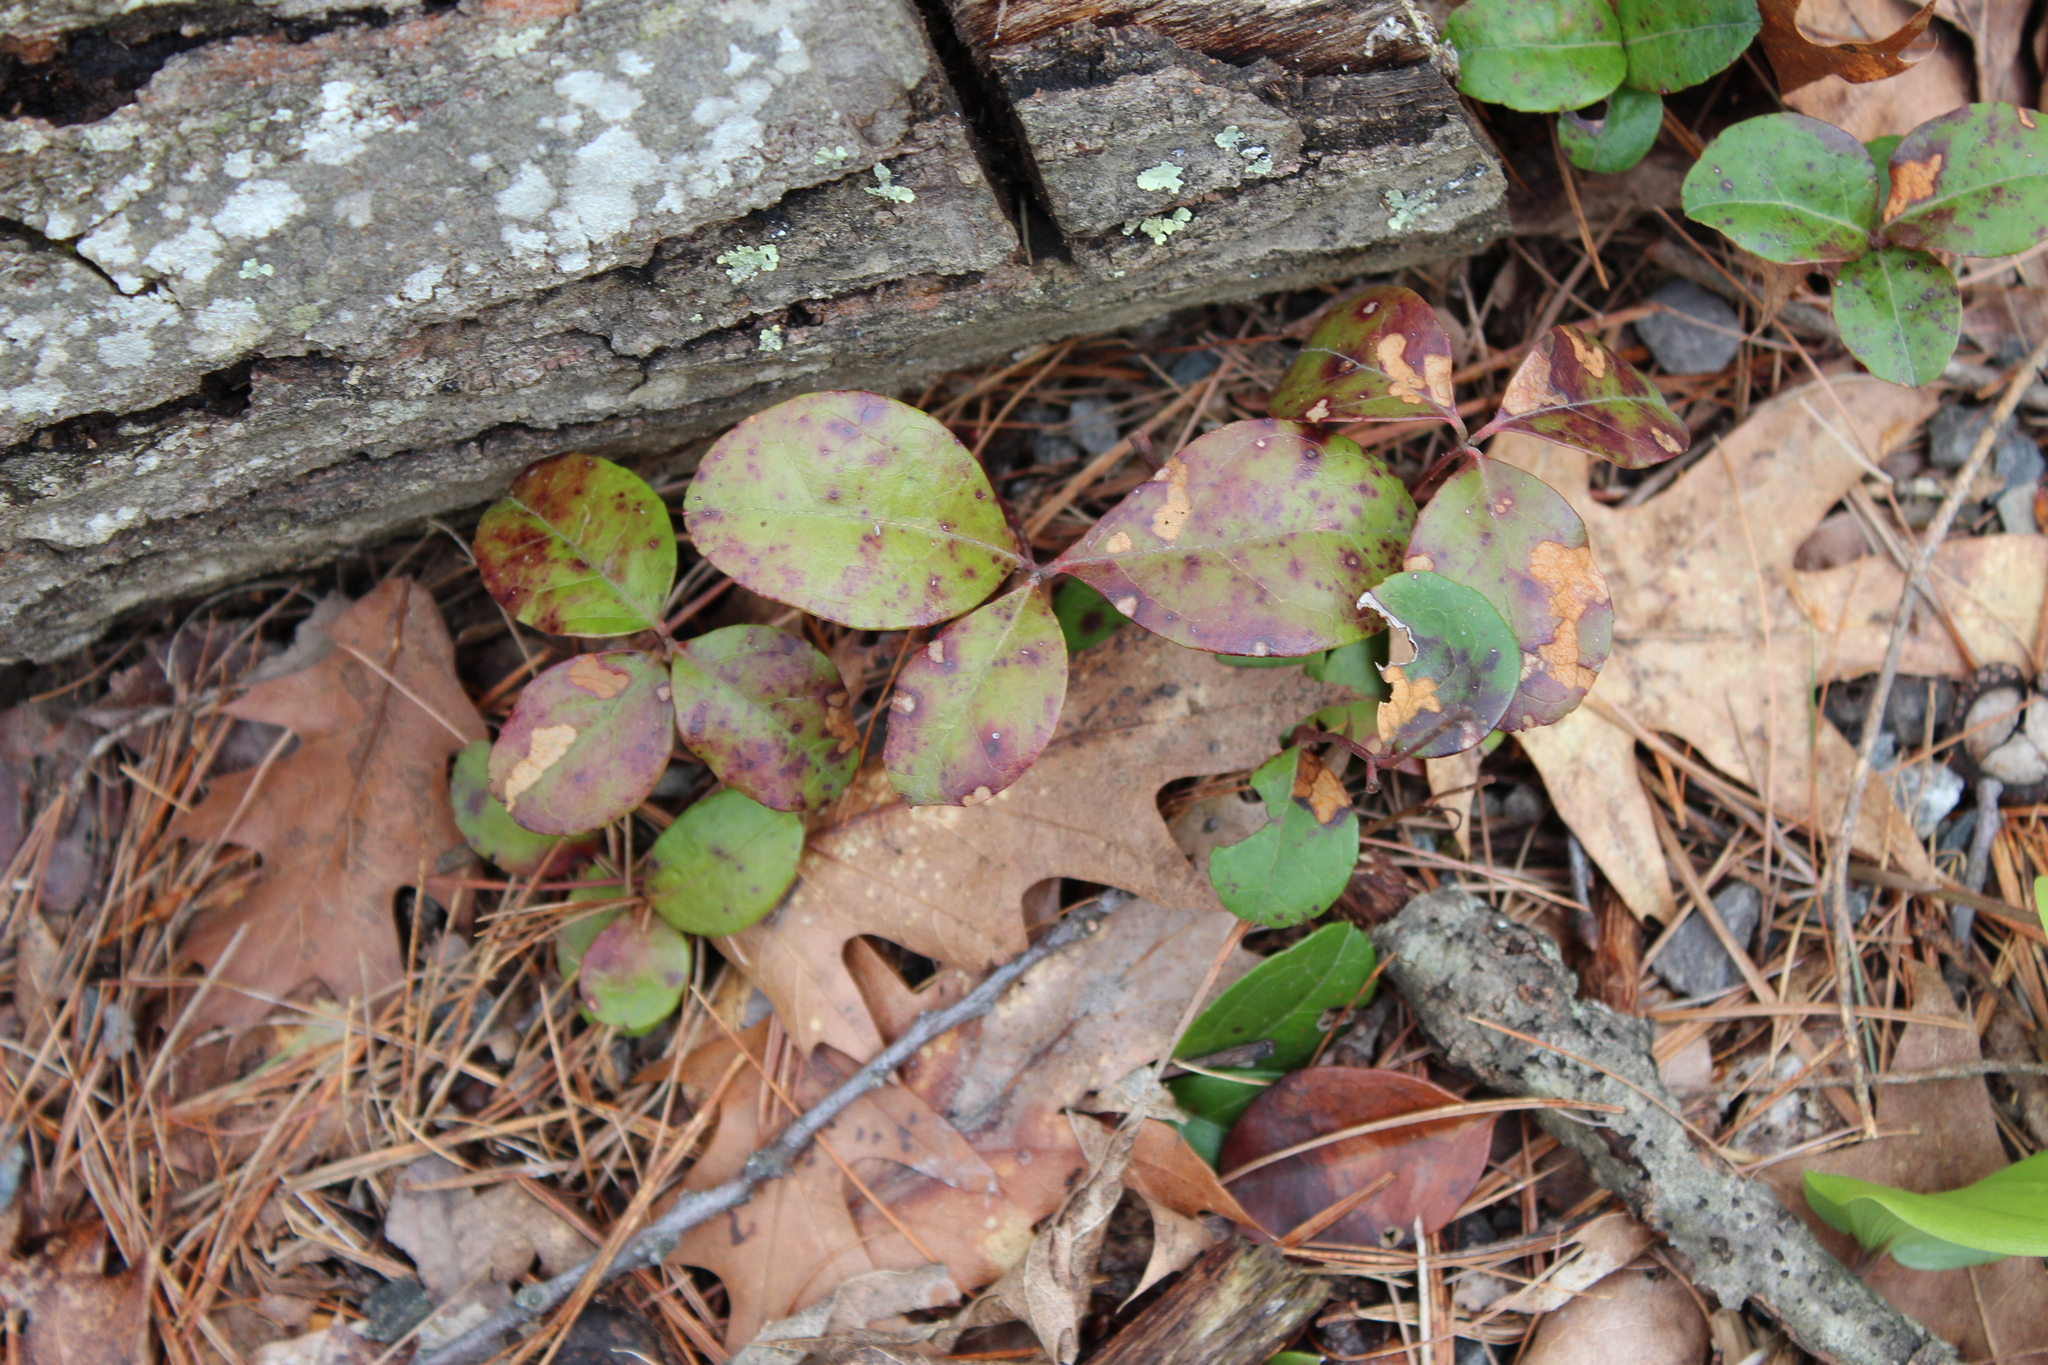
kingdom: Plantae
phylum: Tracheophyta
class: Magnoliopsida
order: Ericales
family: Ericaceae
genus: Gaultheria
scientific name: Gaultheria procumbens
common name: Checkerberry
